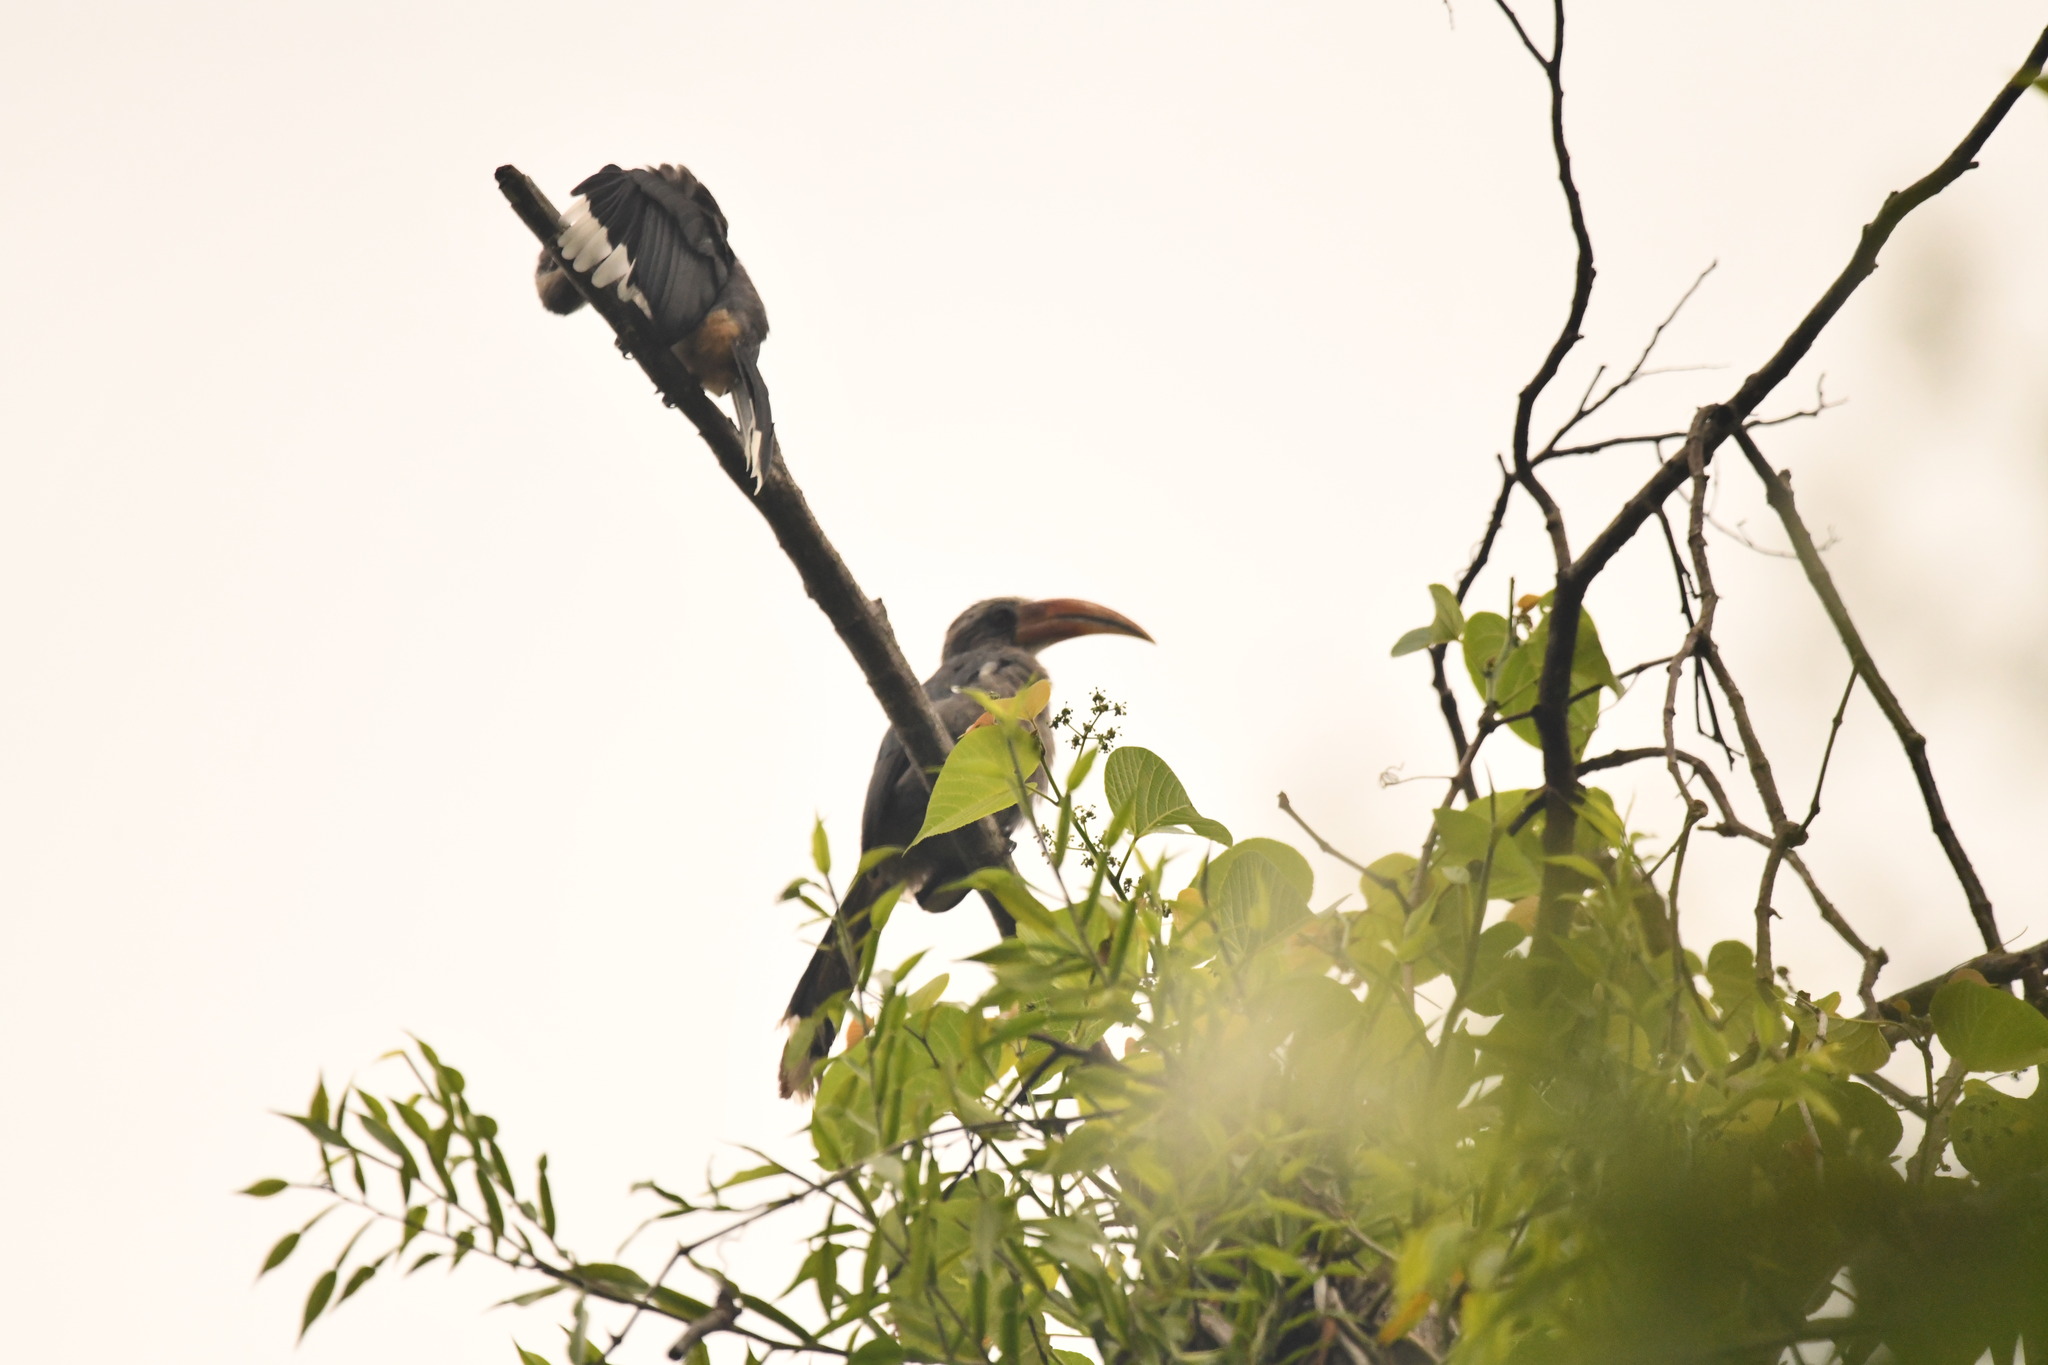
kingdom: Animalia
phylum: Chordata
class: Aves
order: Bucerotiformes
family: Bucerotidae
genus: Ocyceros
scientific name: Ocyceros griseus
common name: Malabar grey hornbill
